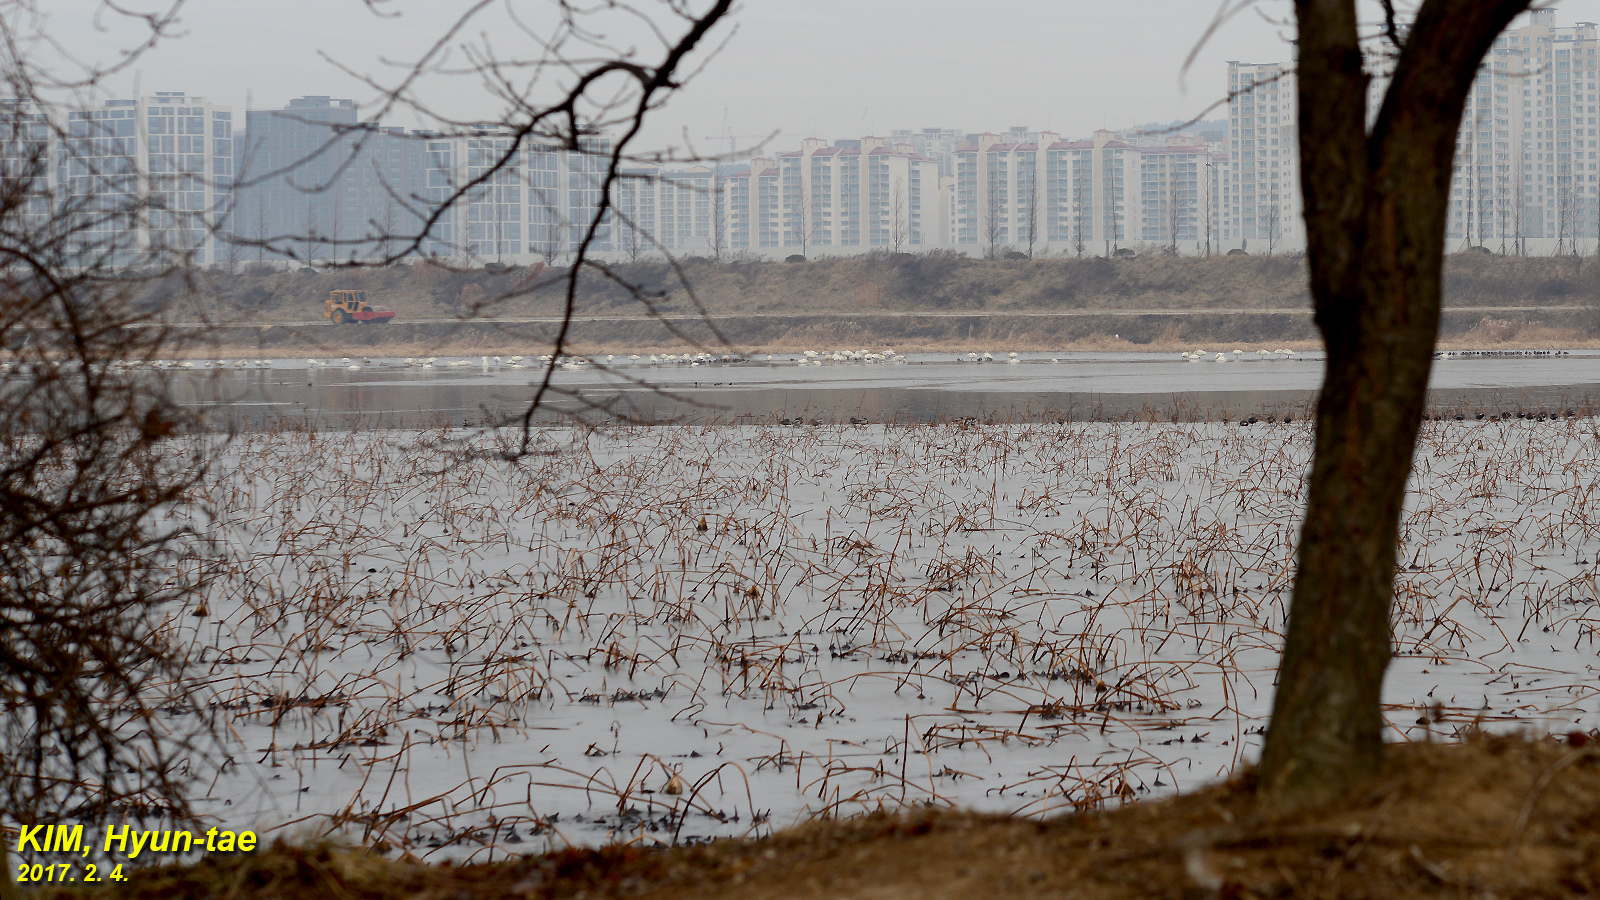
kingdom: Animalia
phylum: Chordata
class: Aves
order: Anseriformes
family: Anatidae
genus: Cygnus
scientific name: Cygnus cygnus
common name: Whooper swan
